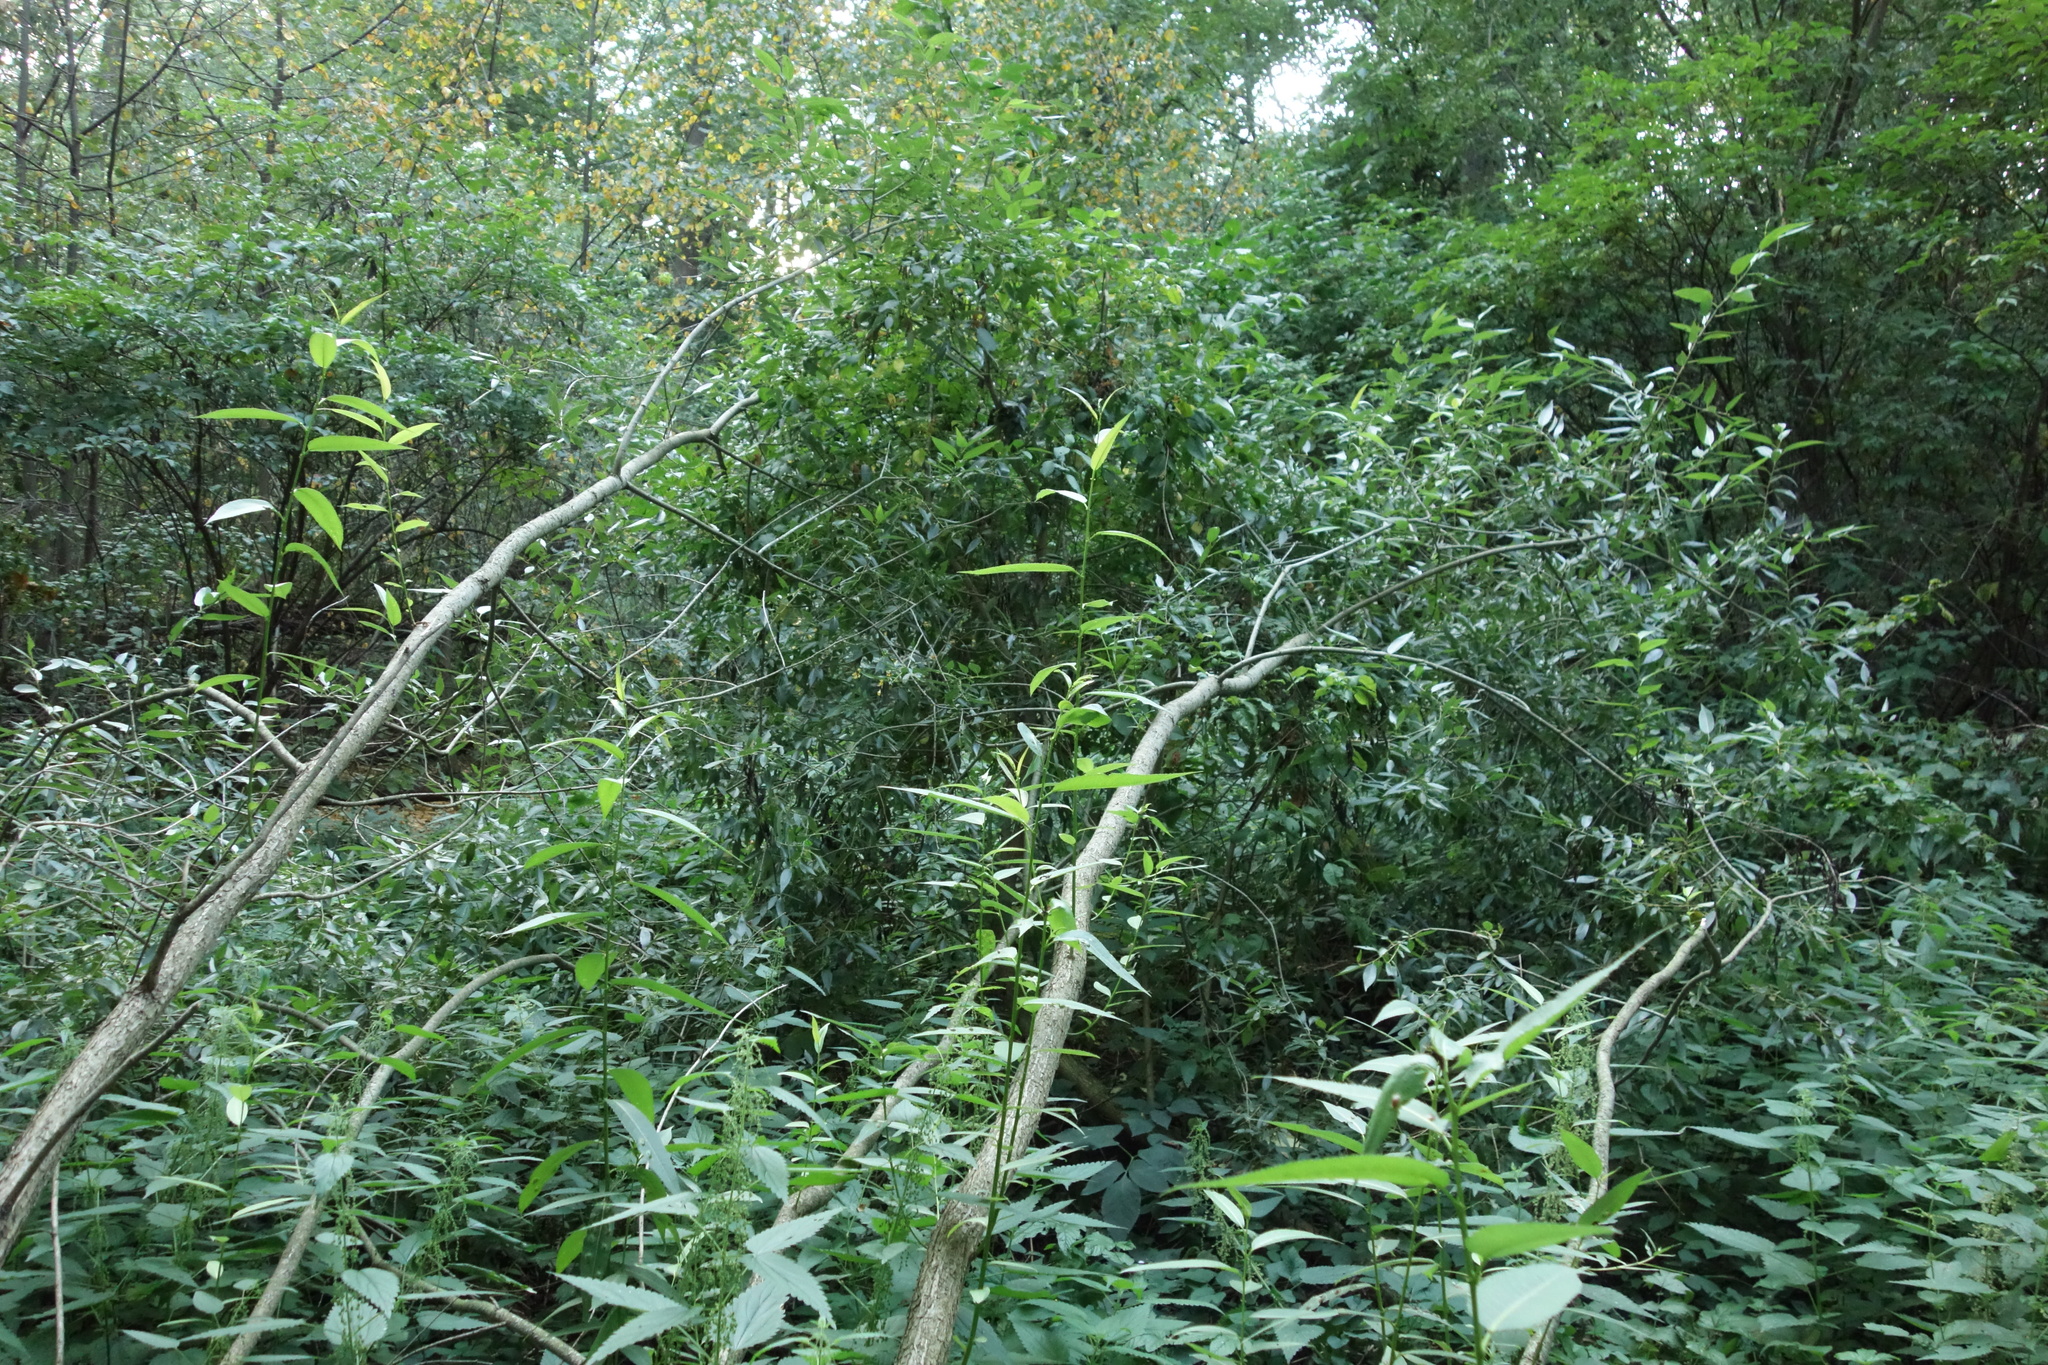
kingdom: Plantae
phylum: Tracheophyta
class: Magnoliopsida
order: Malpighiales
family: Salicaceae
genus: Salix
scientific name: Salix alba
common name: White willow
